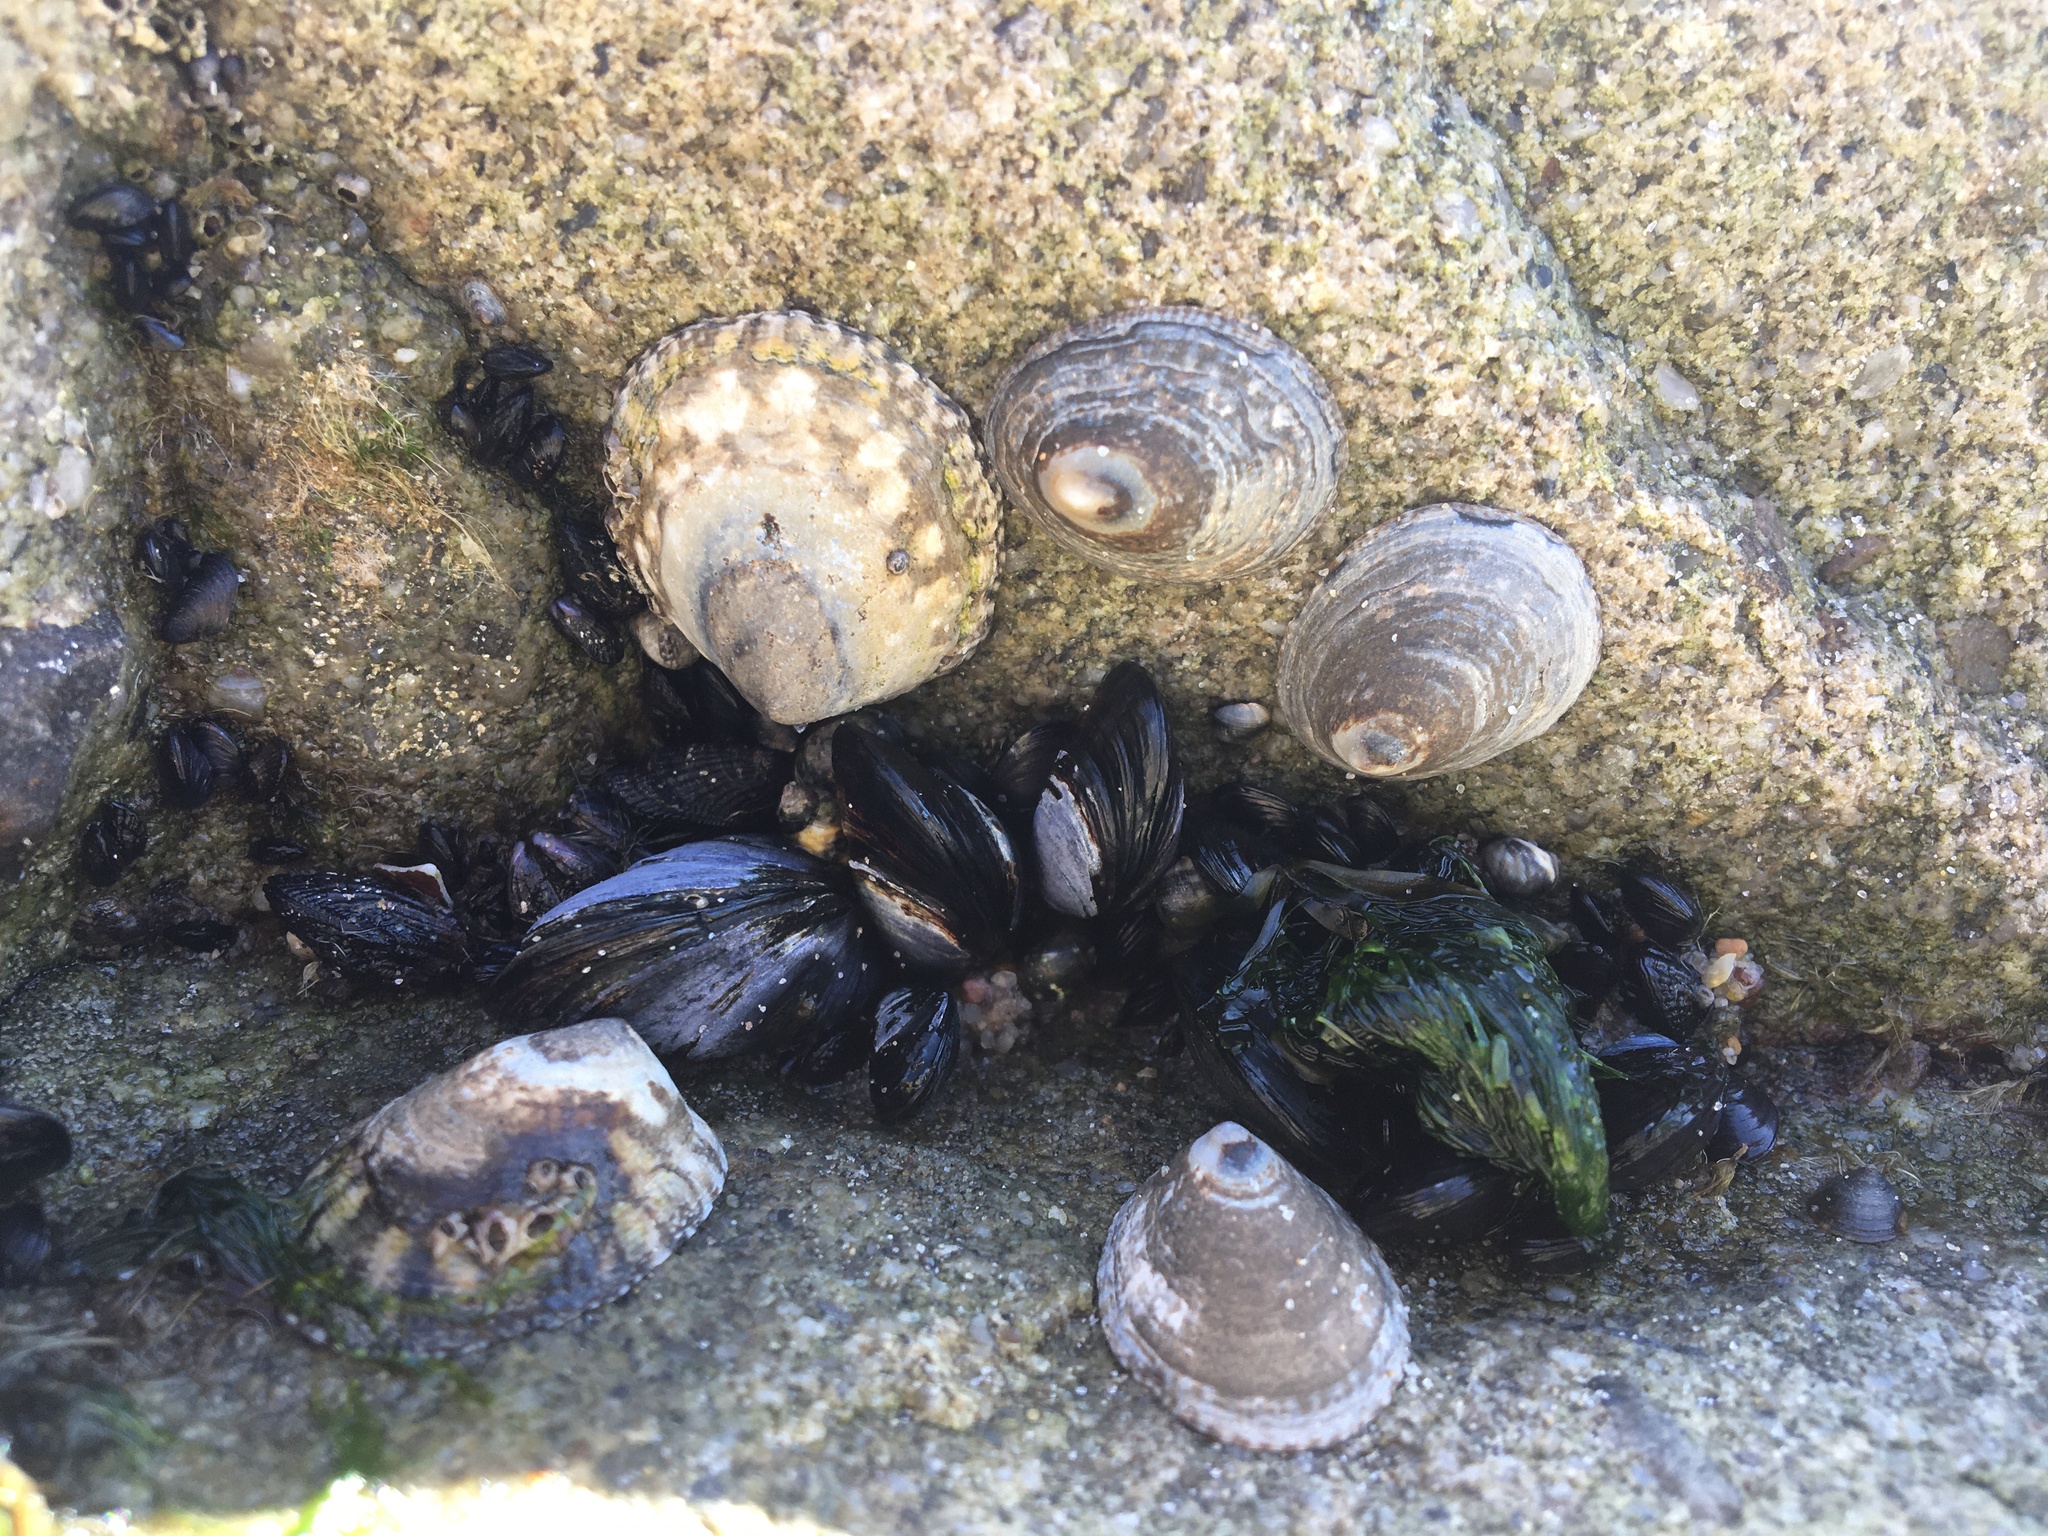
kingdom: Animalia
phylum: Mollusca
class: Gastropoda
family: Lottiidae
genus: Lottia
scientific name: Lottia gigantea
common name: Owl limpet
